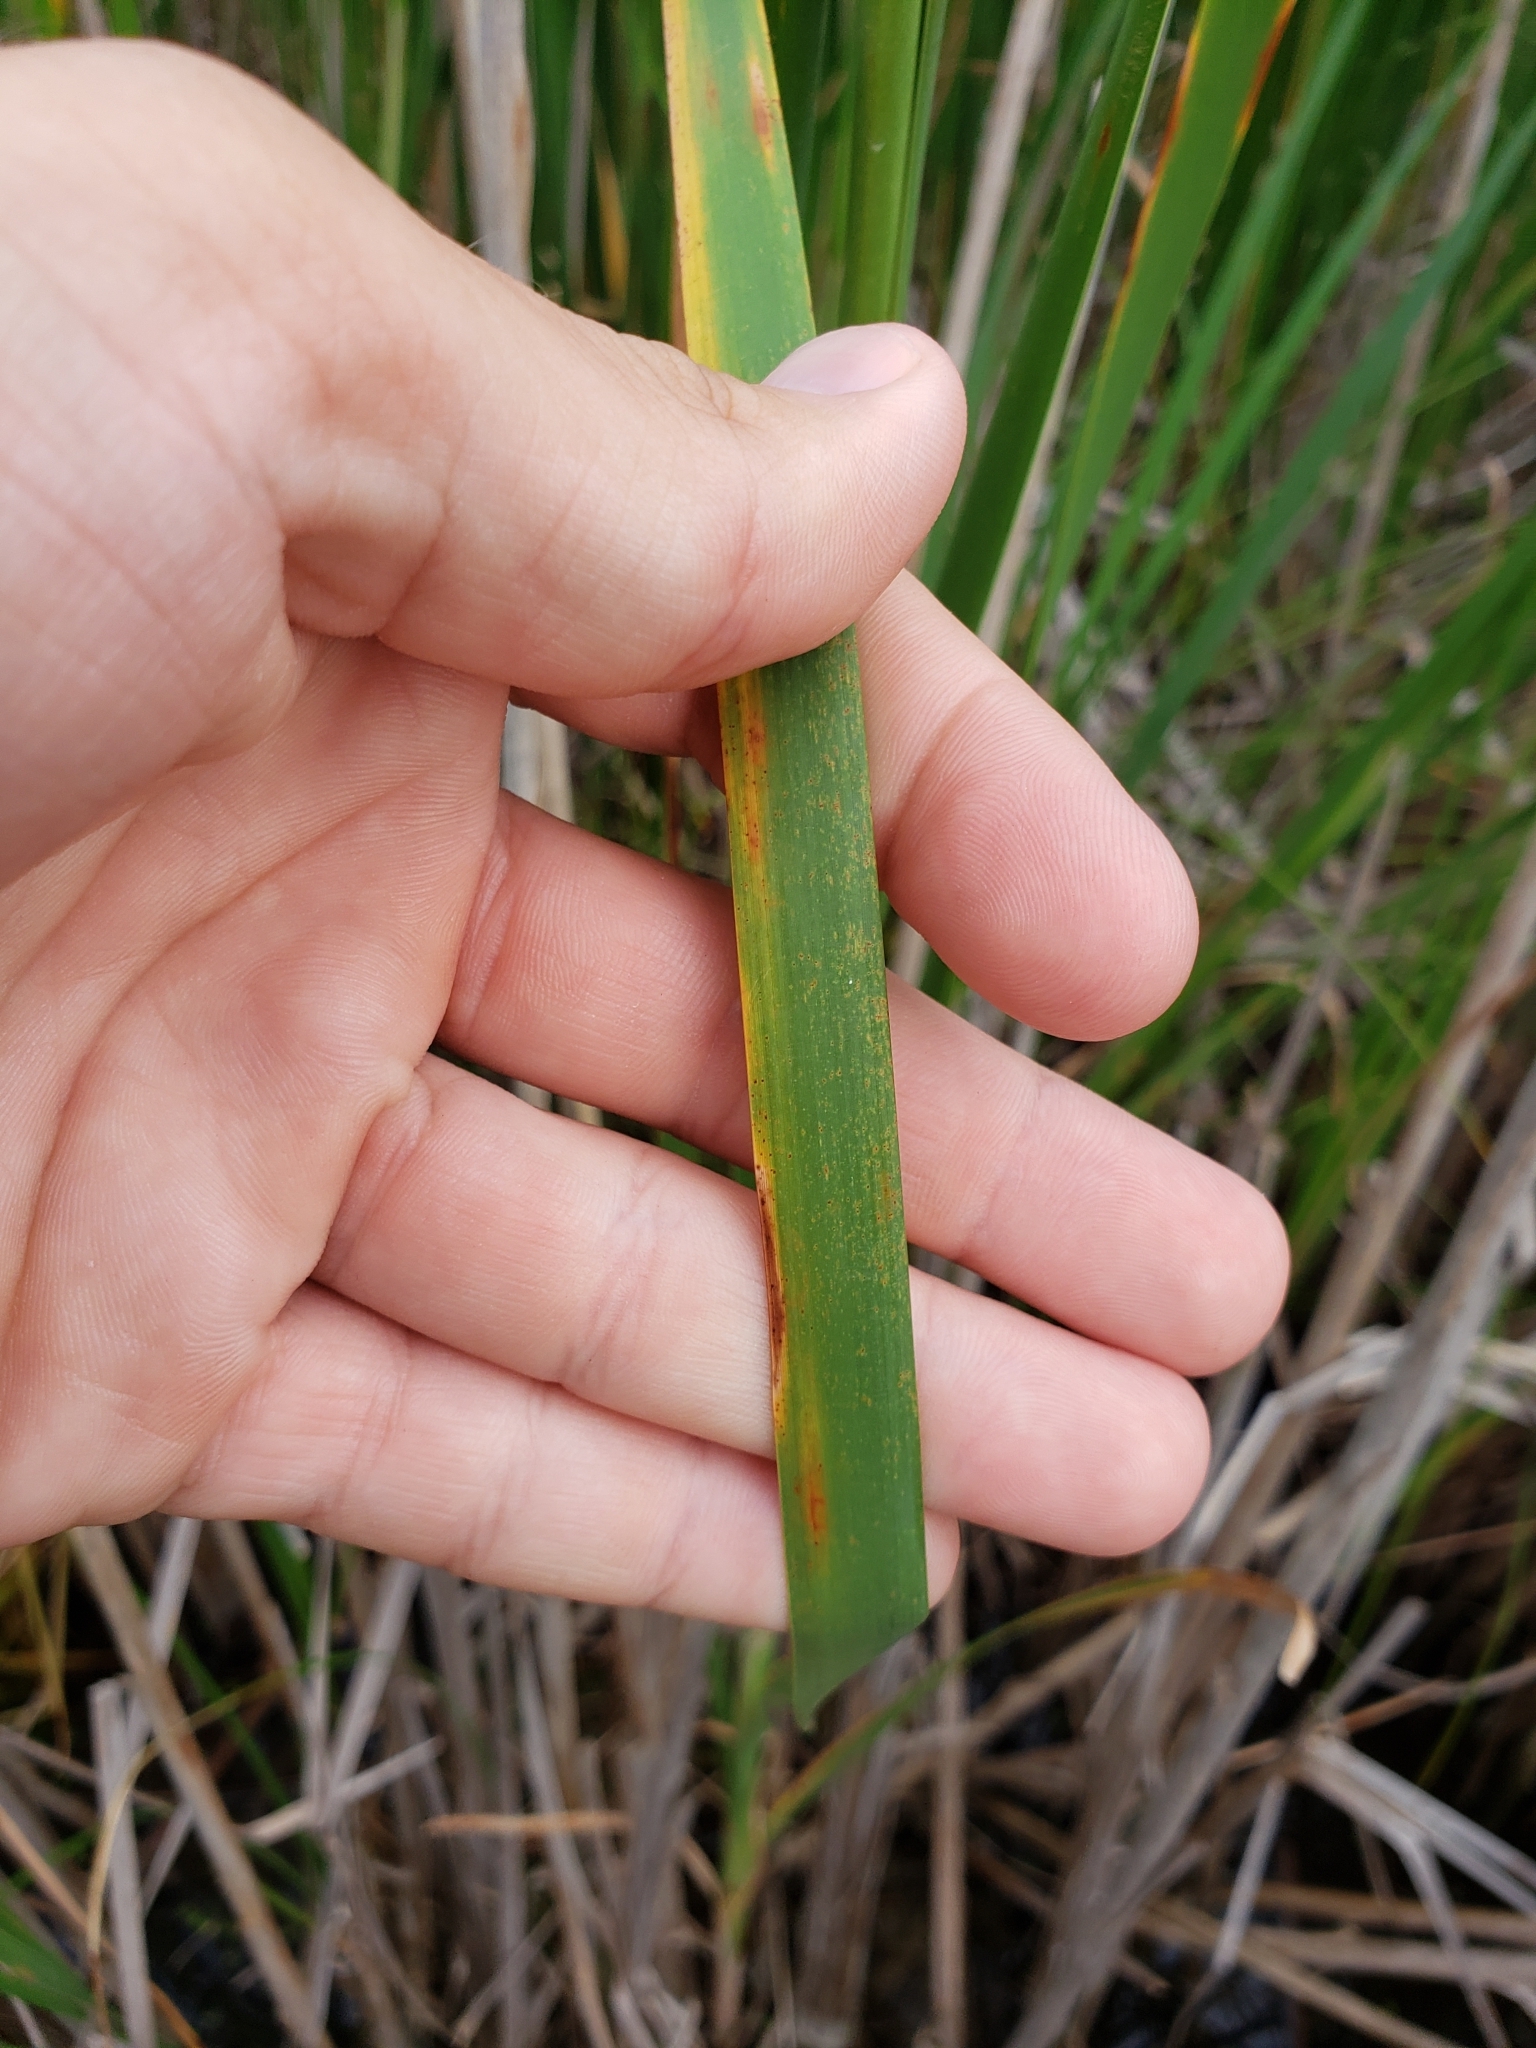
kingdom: Plantae
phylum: Tracheophyta
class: Liliopsida
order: Poales
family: Typhaceae
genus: Typha
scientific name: Typha angustifolia
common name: Lesser bulrush
